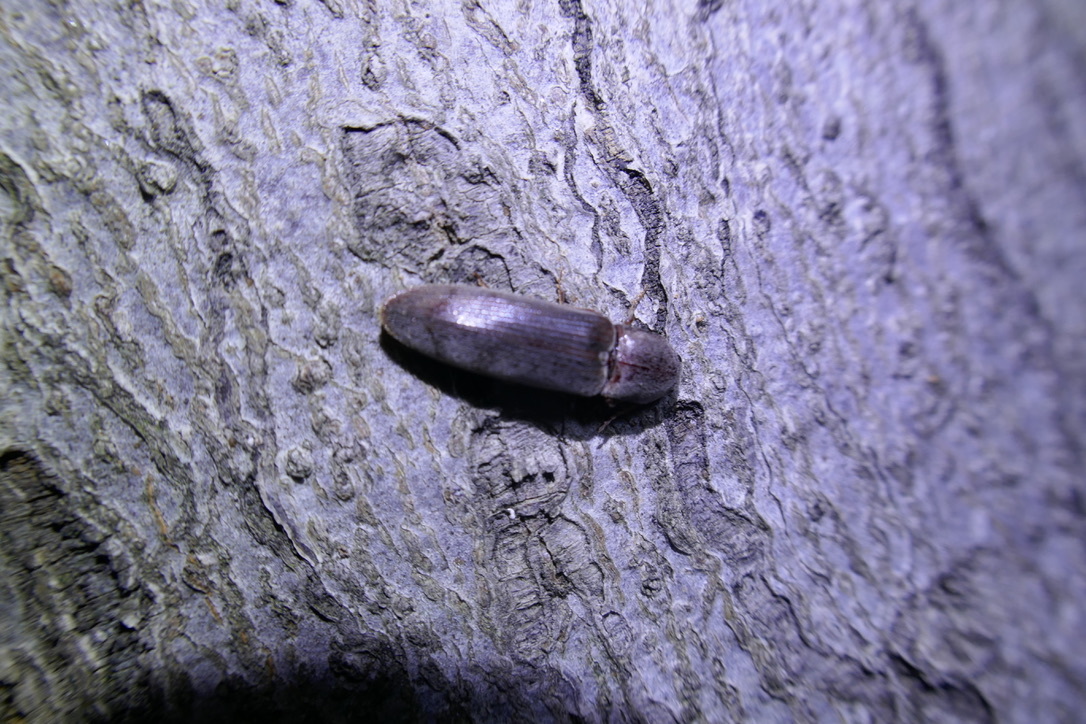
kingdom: Animalia
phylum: Arthropoda
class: Insecta
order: Coleoptera
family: Elateridae
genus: Stenagostus
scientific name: Stenagostus rhombeus
